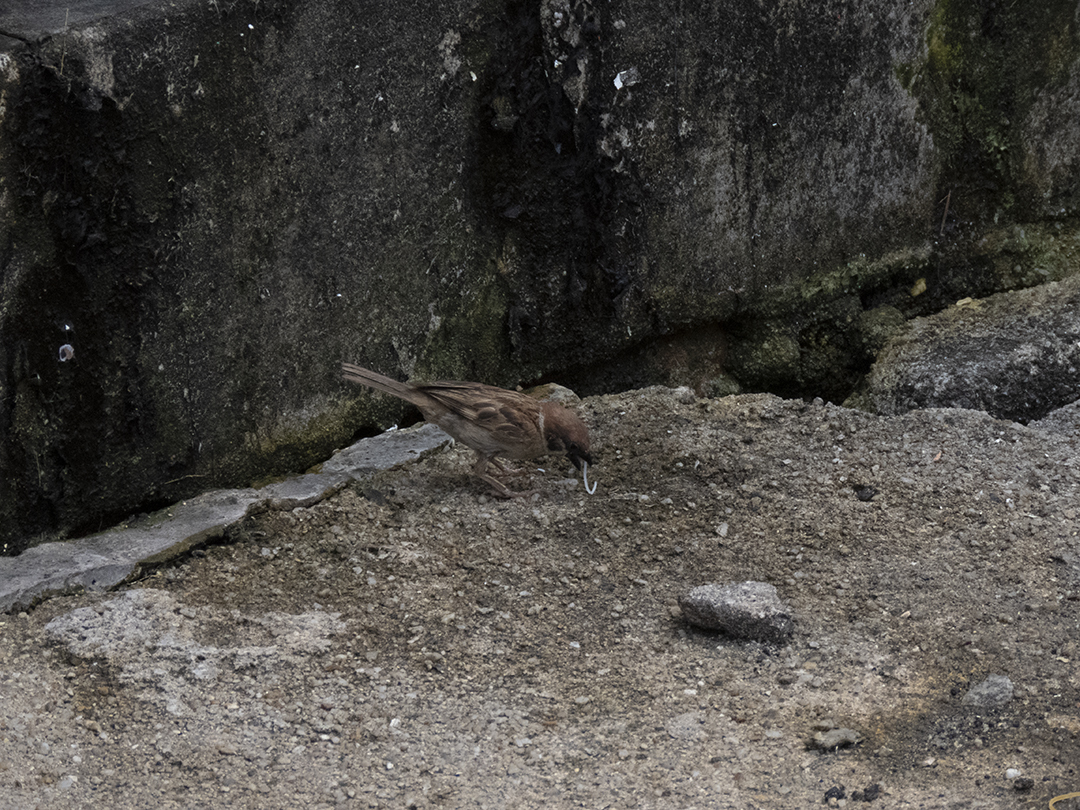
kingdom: Animalia
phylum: Chordata
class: Aves
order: Passeriformes
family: Passeridae
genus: Passer
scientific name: Passer montanus
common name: Eurasian tree sparrow
